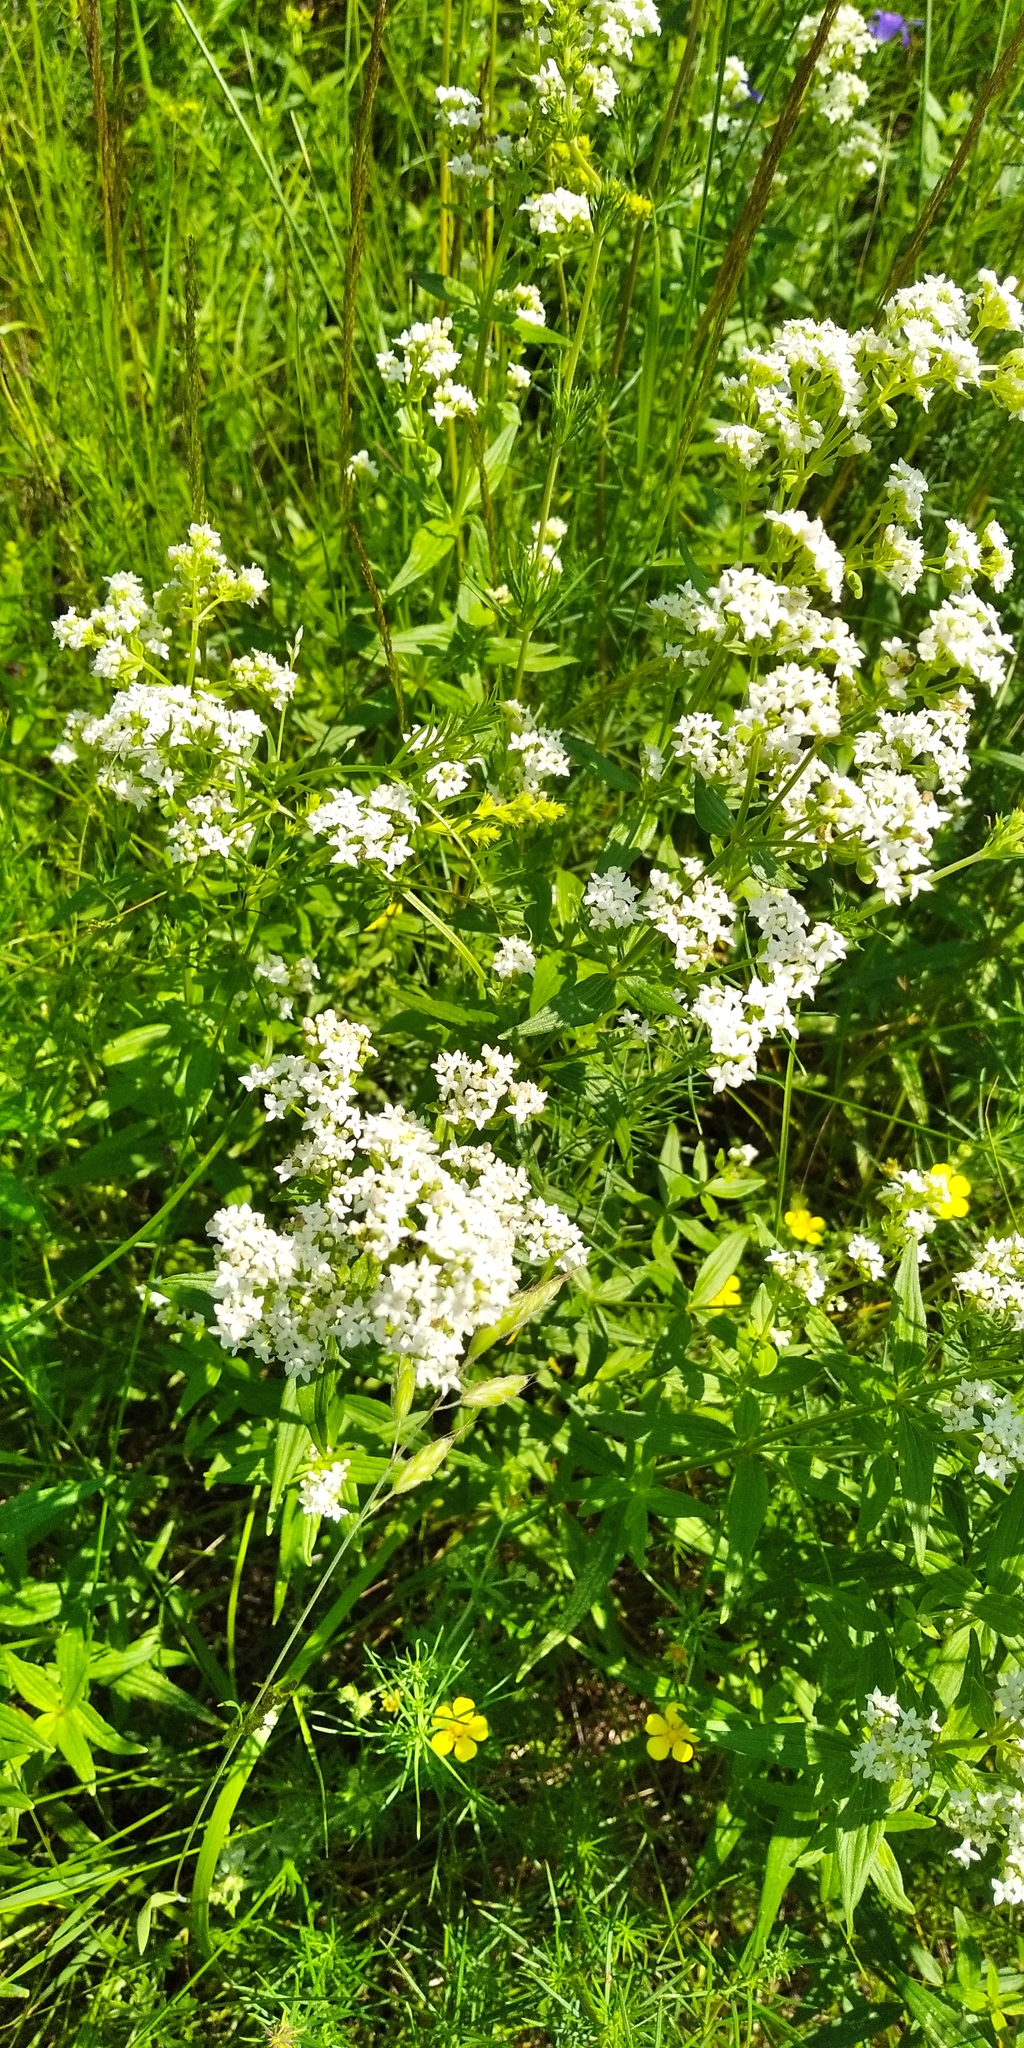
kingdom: Plantae
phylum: Tracheophyta
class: Magnoliopsida
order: Gentianales
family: Rubiaceae
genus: Galium
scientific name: Galium boreale
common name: Northern bedstraw
